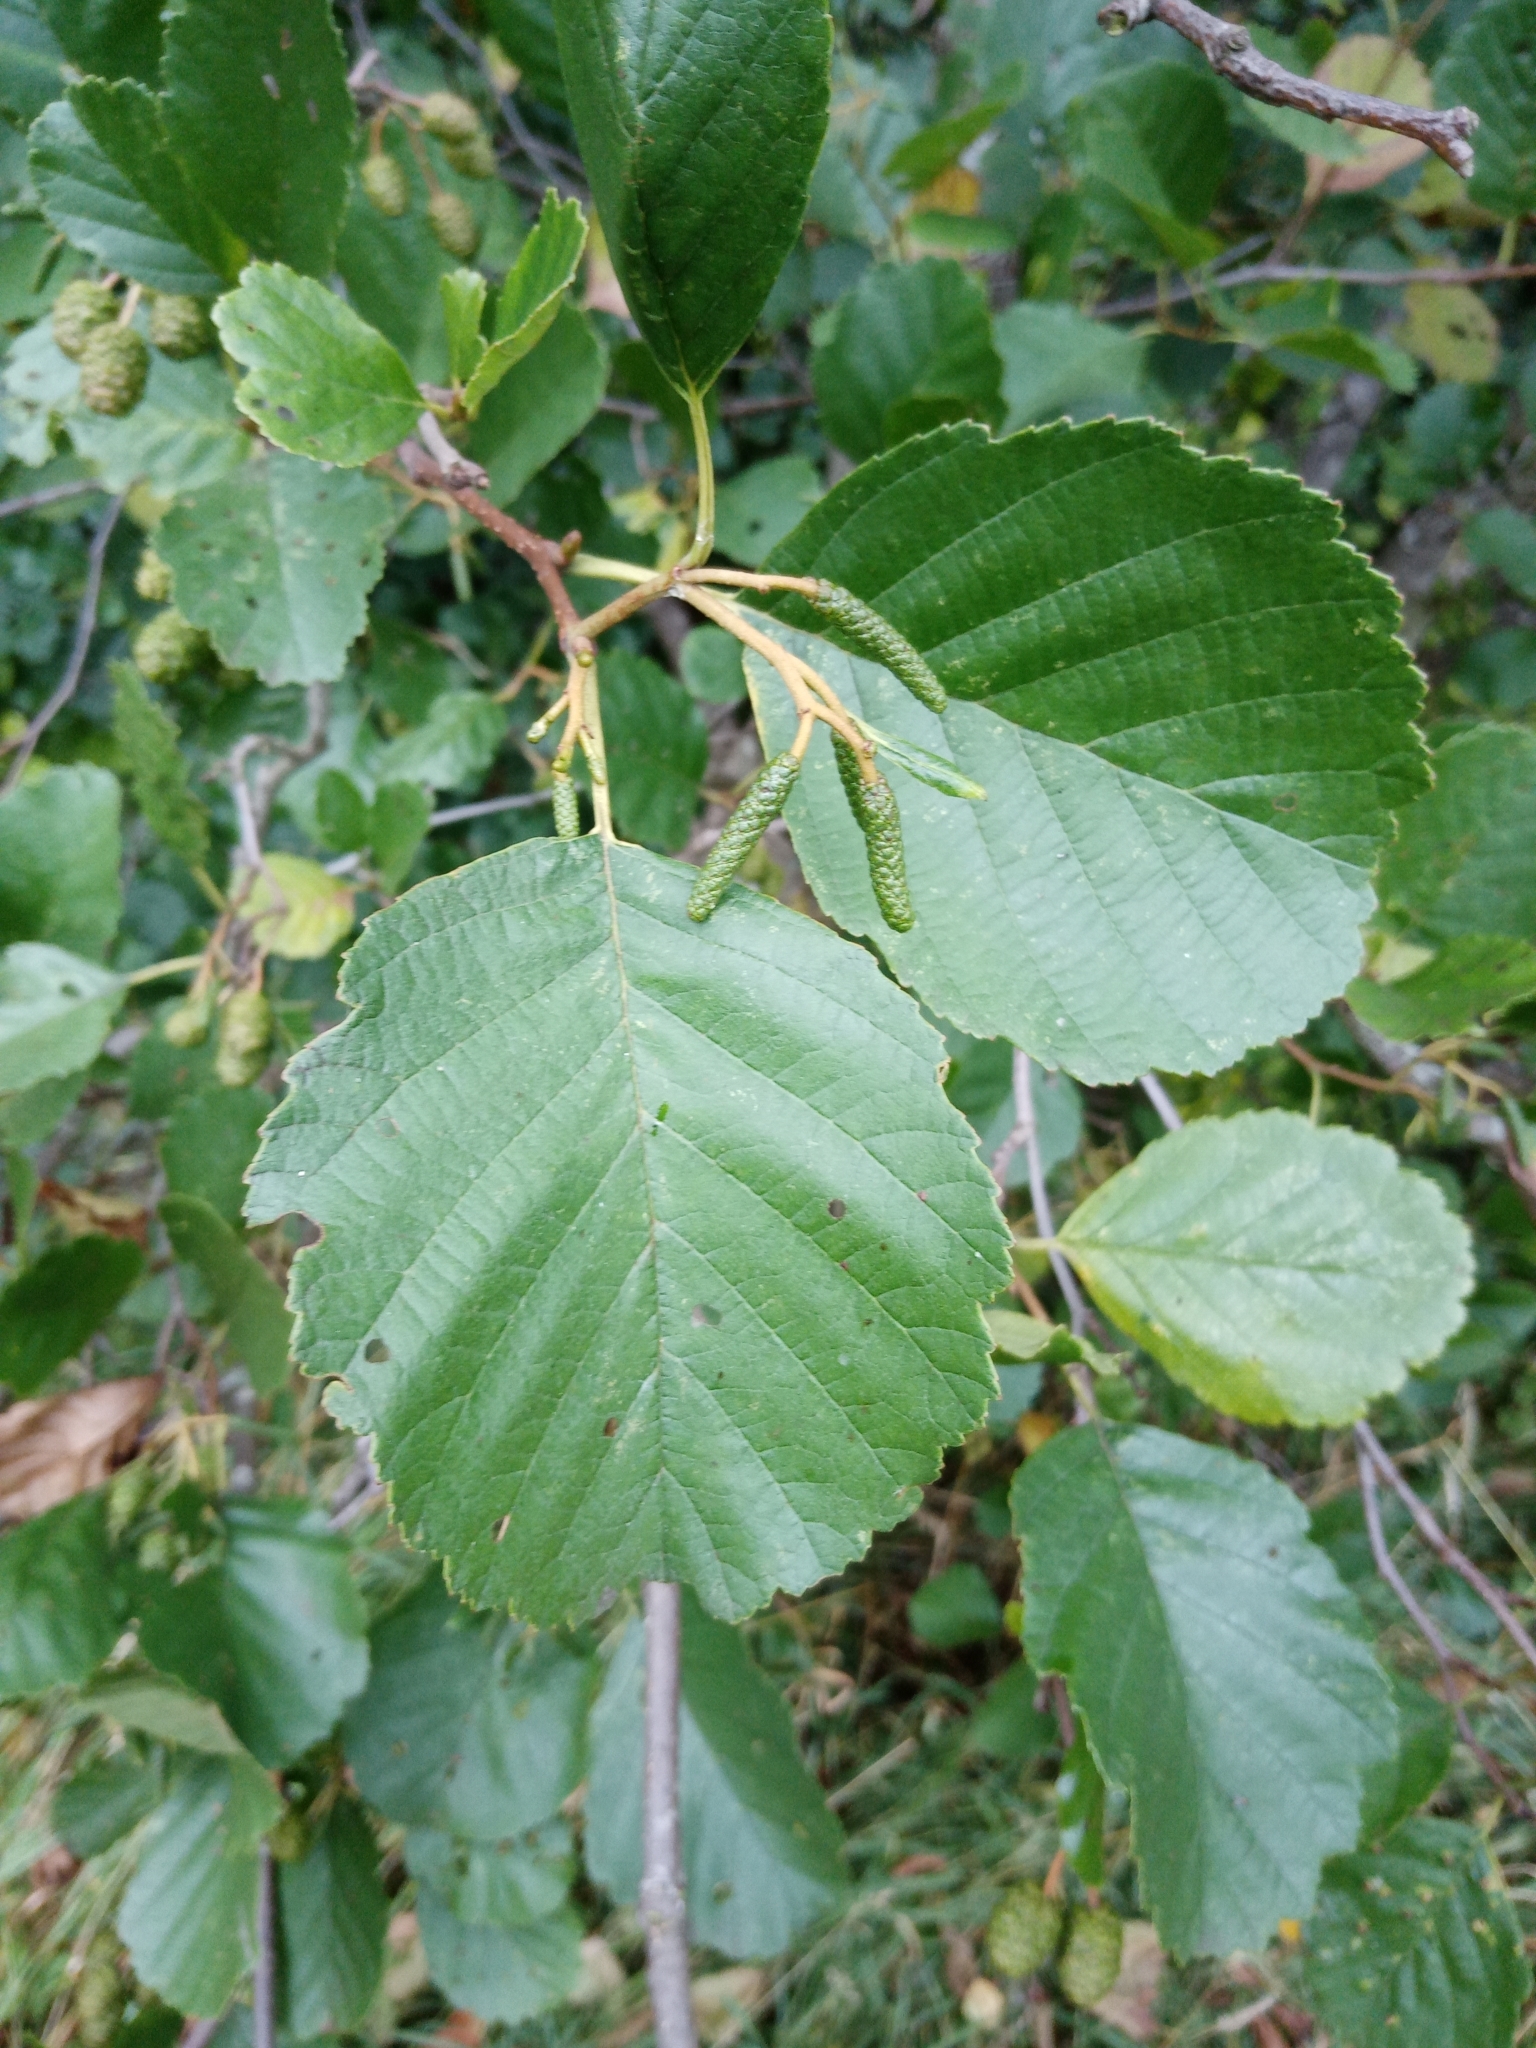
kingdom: Plantae
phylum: Tracheophyta
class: Magnoliopsida
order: Fagales
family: Betulaceae
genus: Alnus
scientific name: Alnus glutinosa
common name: Black alder
